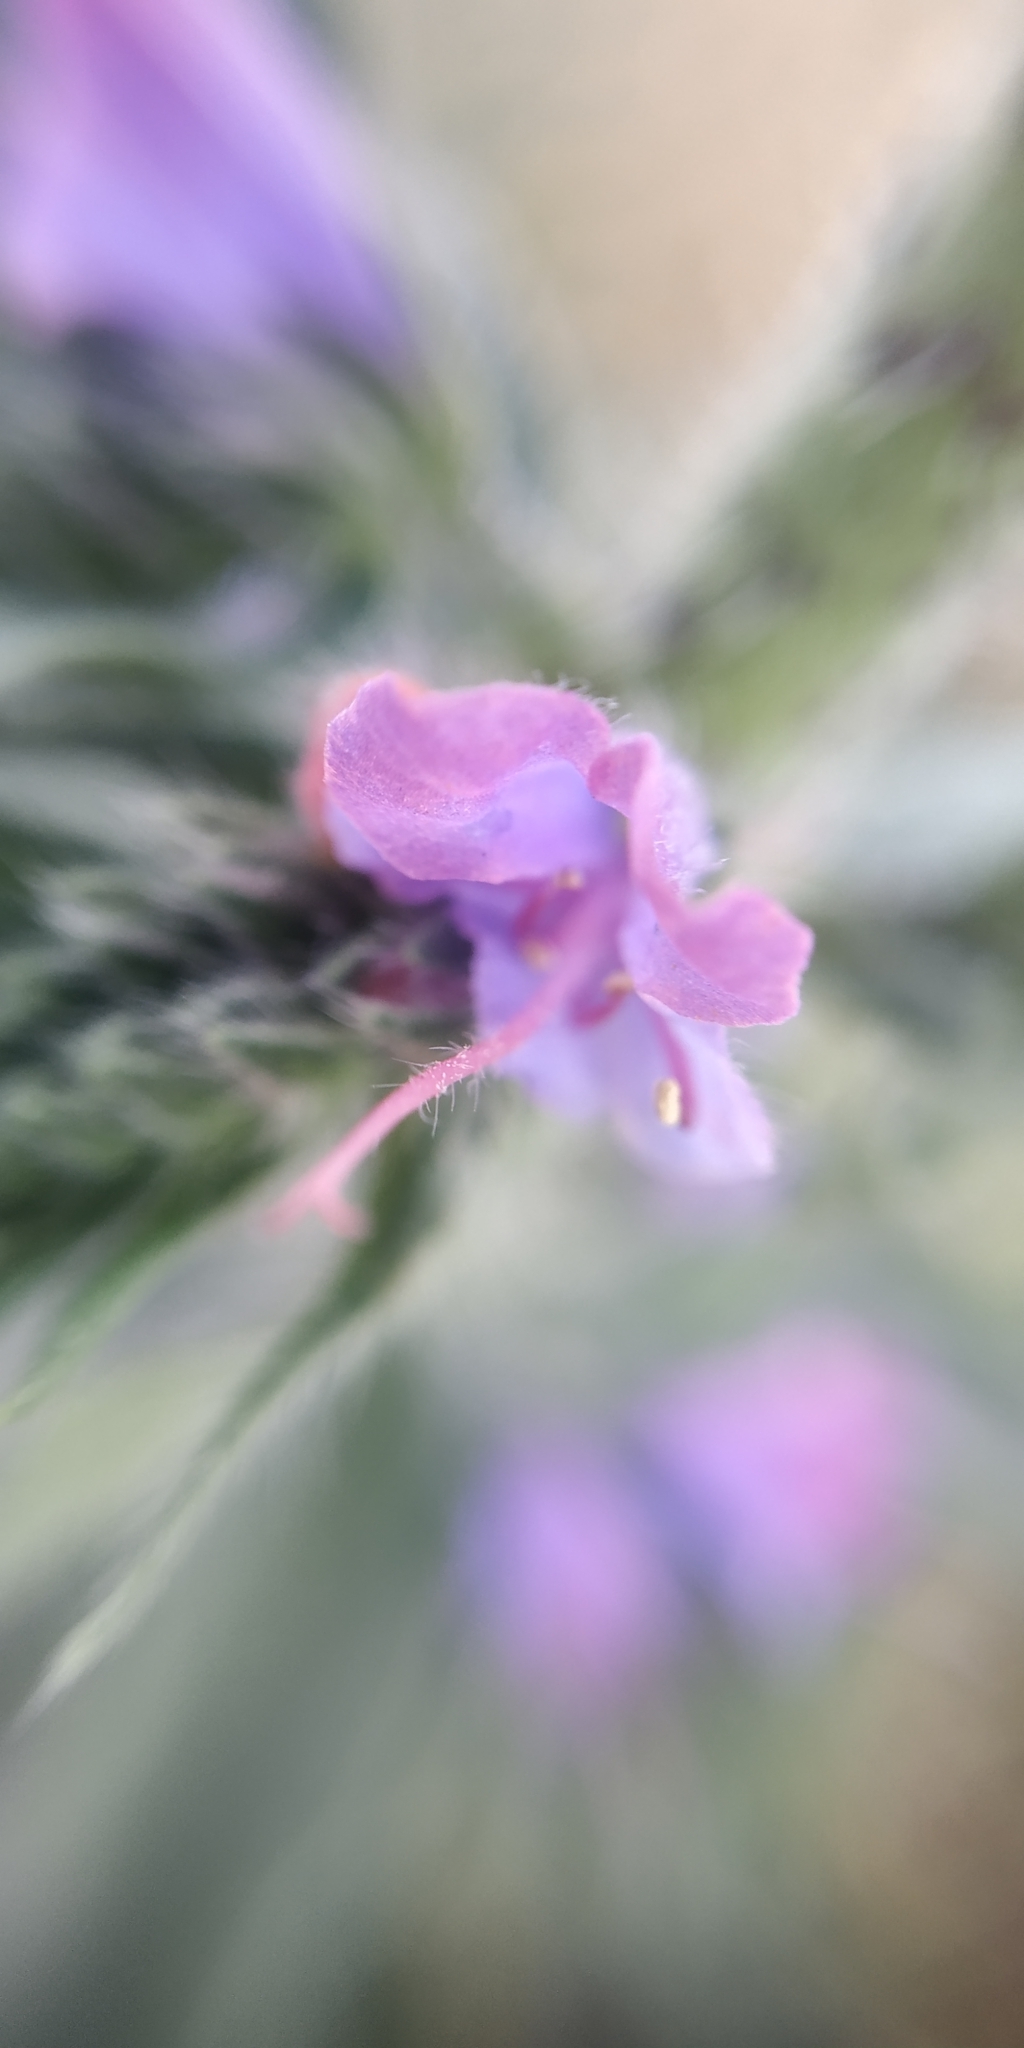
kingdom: Plantae
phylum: Tracheophyta
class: Magnoliopsida
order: Boraginales
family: Boraginaceae
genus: Echium
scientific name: Echium vulgare
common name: Common viper's bugloss
